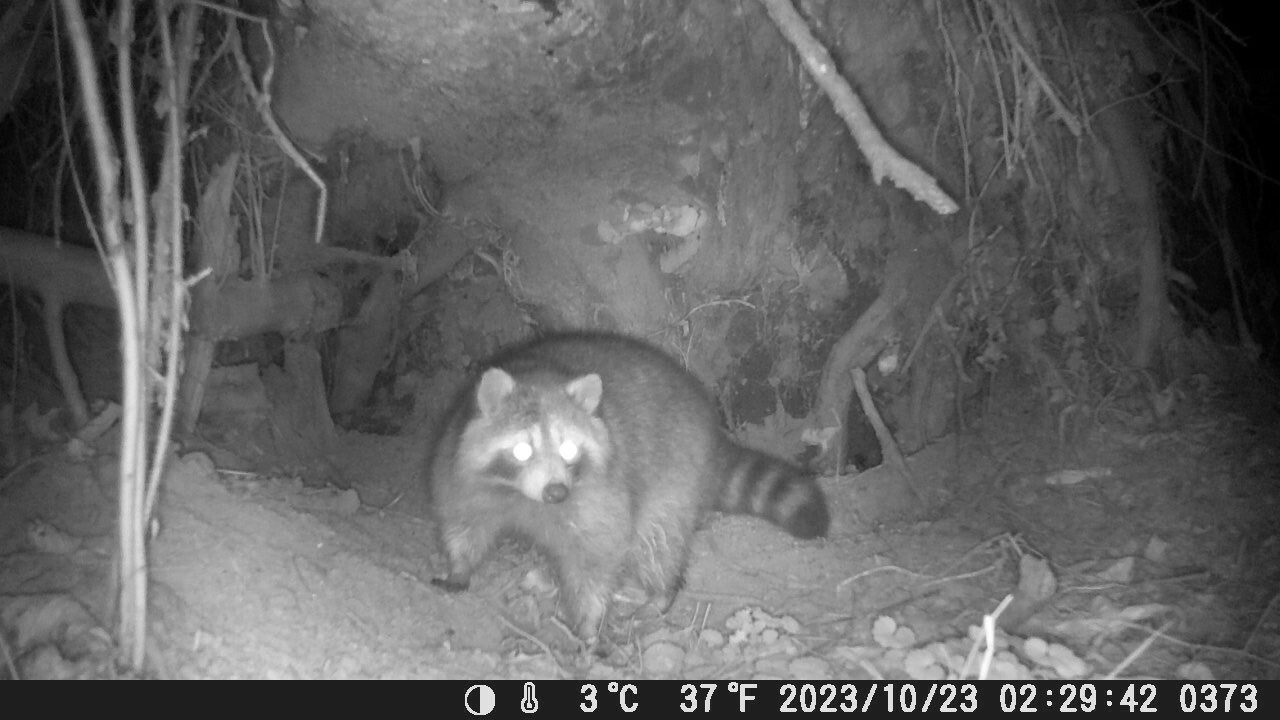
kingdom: Animalia
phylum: Chordata
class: Mammalia
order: Carnivora
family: Procyonidae
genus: Procyon
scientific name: Procyon lotor
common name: Raccoon
